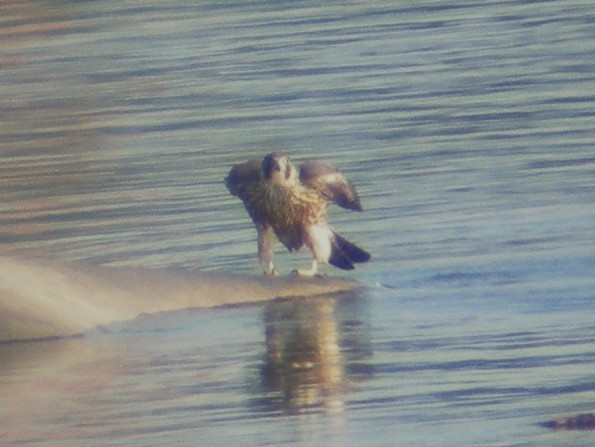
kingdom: Animalia
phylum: Chordata
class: Aves
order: Falconiformes
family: Falconidae
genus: Falco
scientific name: Falco peregrinus
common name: Peregrine falcon
